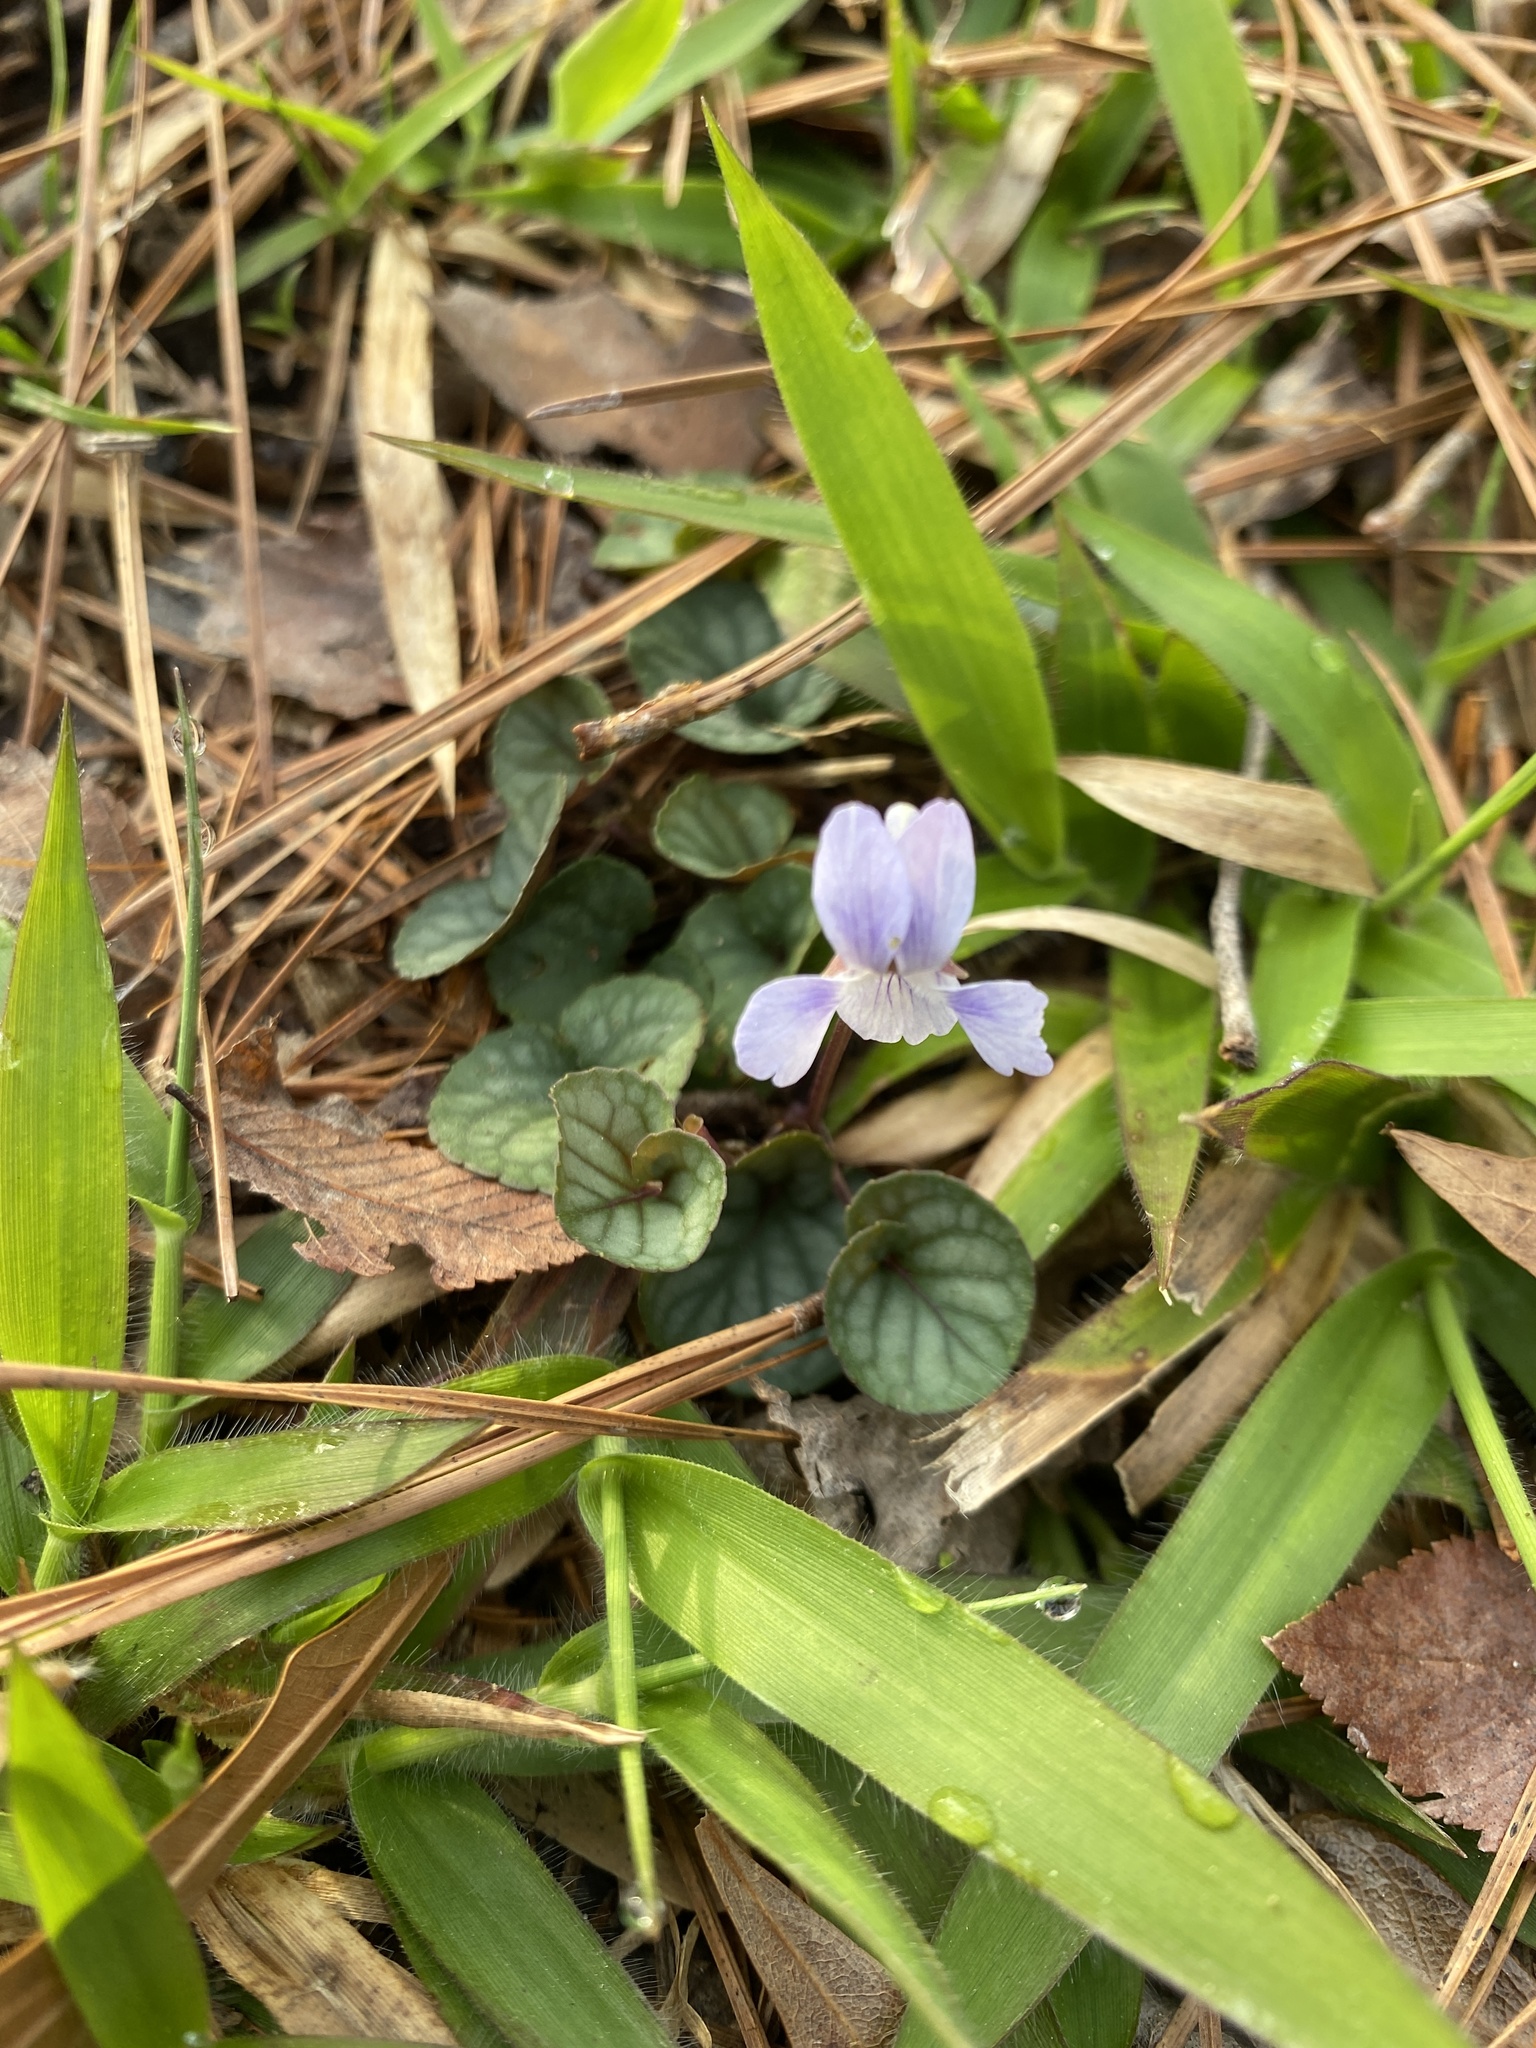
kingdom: Plantae
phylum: Tracheophyta
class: Magnoliopsida
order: Malpighiales
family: Violaceae
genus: Viola
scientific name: Viola walteri
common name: Prostrate southern violet
